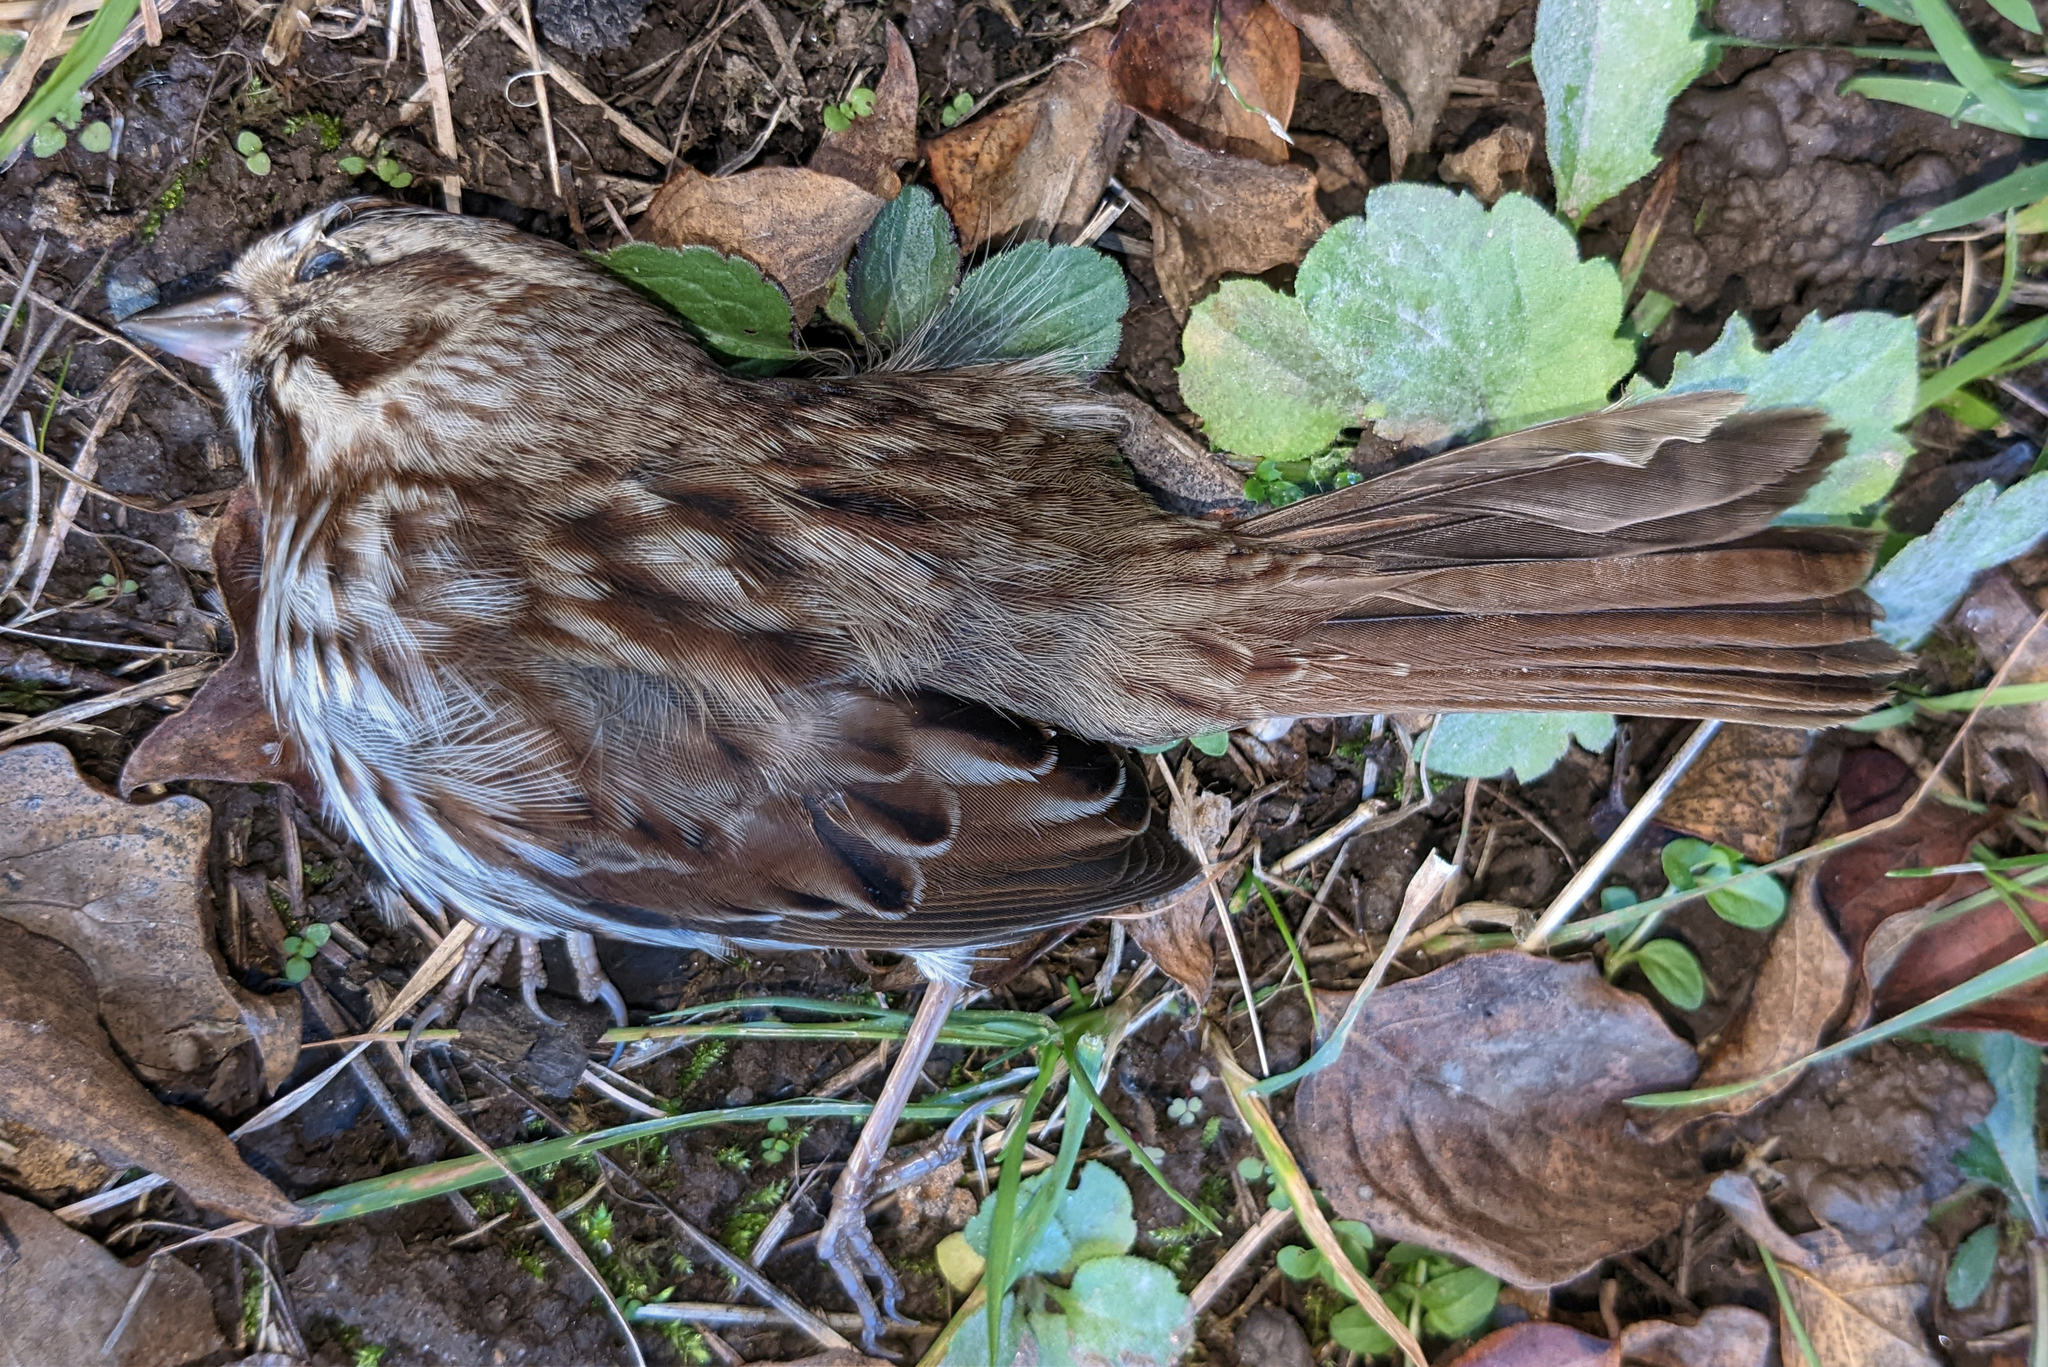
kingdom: Animalia
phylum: Chordata
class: Aves
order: Passeriformes
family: Passerellidae
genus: Melospiza
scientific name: Melospiza melodia
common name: Song sparrow
